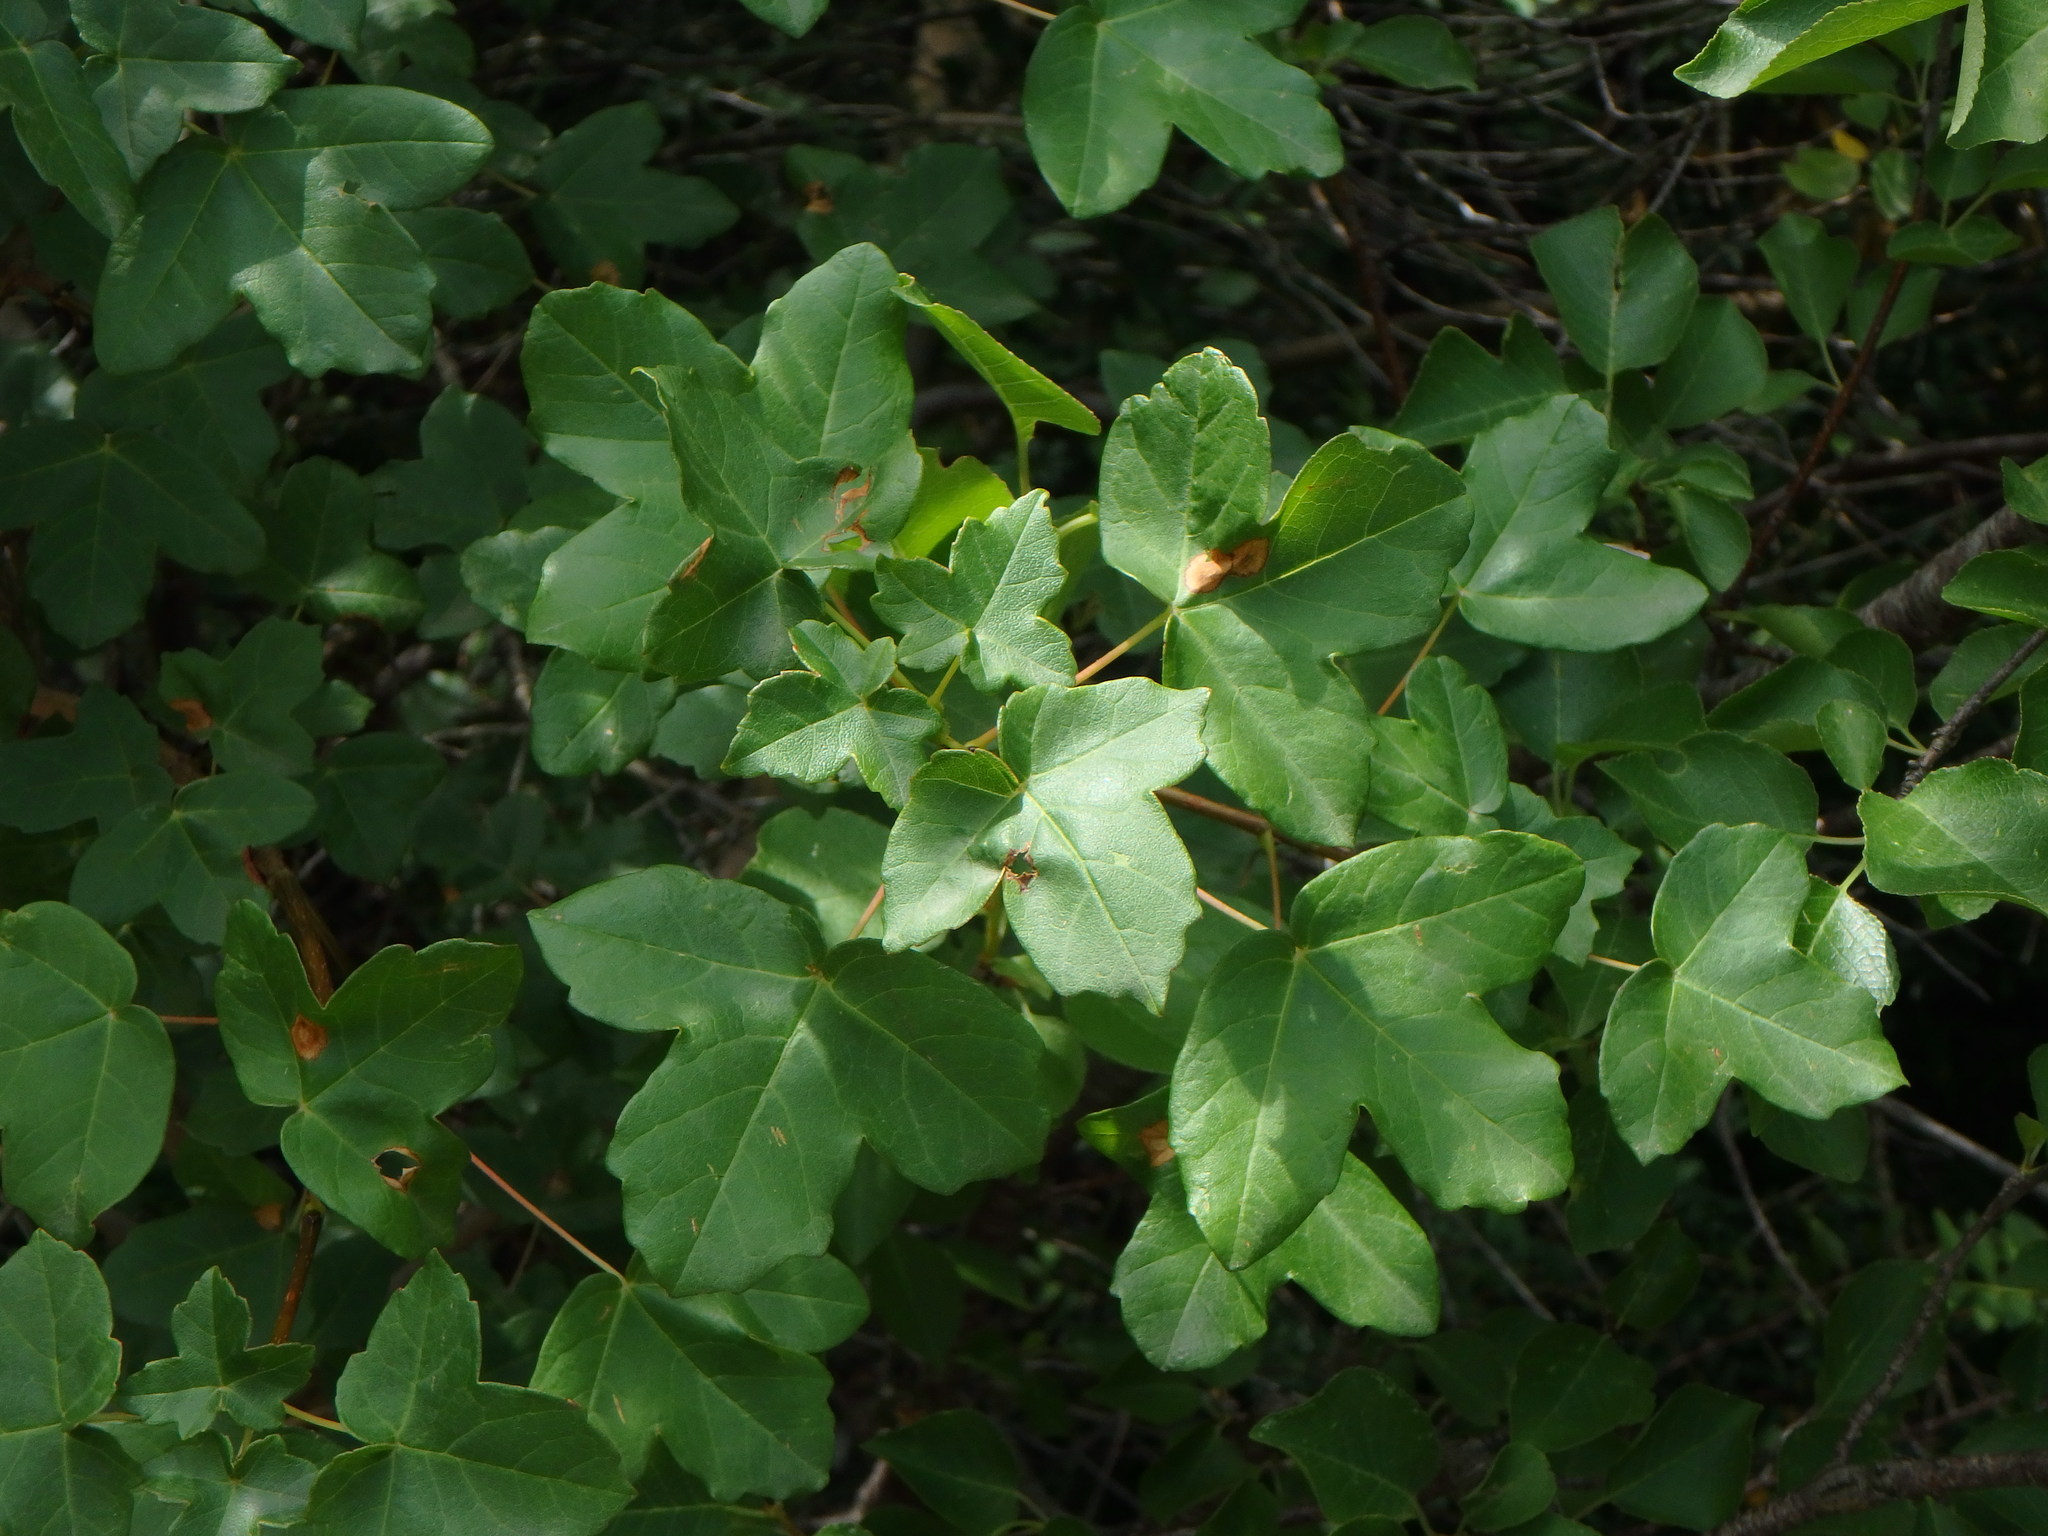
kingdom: Plantae
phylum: Tracheophyta
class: Magnoliopsida
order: Sapindales
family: Sapindaceae
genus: Acer
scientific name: Acer monspessulanum
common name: Montpellier maple
